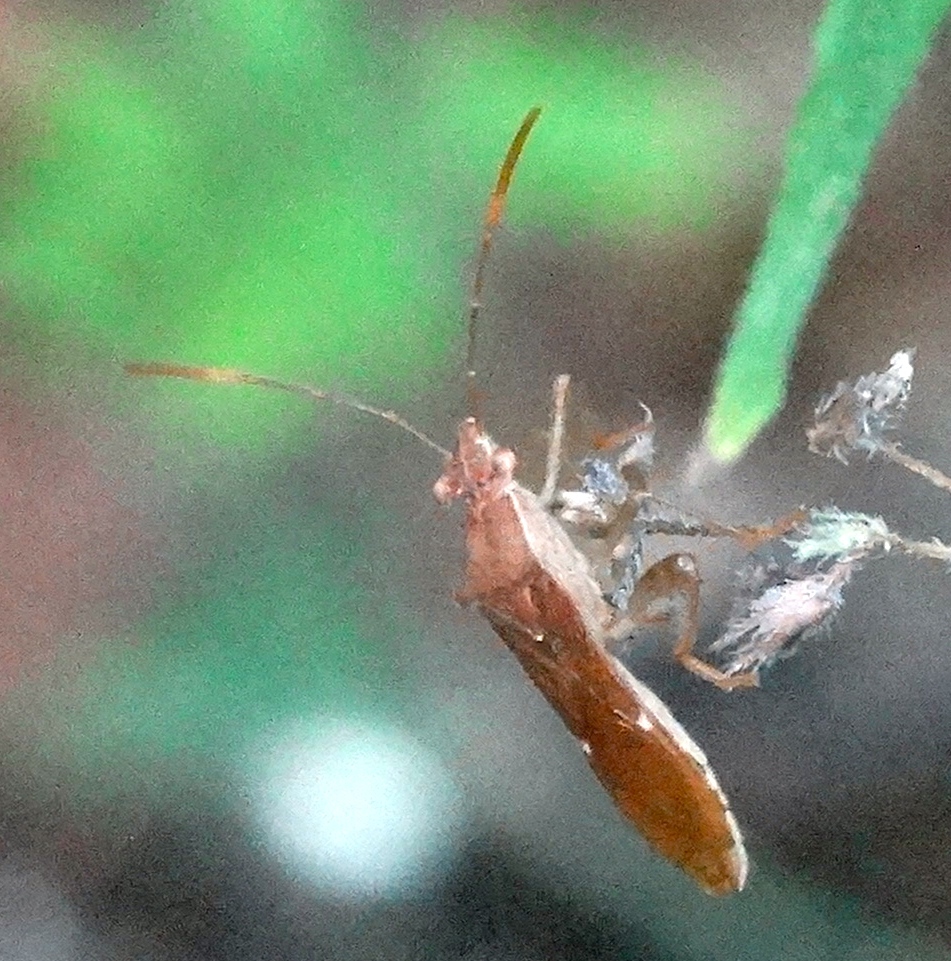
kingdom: Animalia
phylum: Arthropoda
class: Insecta
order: Hemiptera
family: Alydidae
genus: Burtinus
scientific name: Burtinus notatipennis
